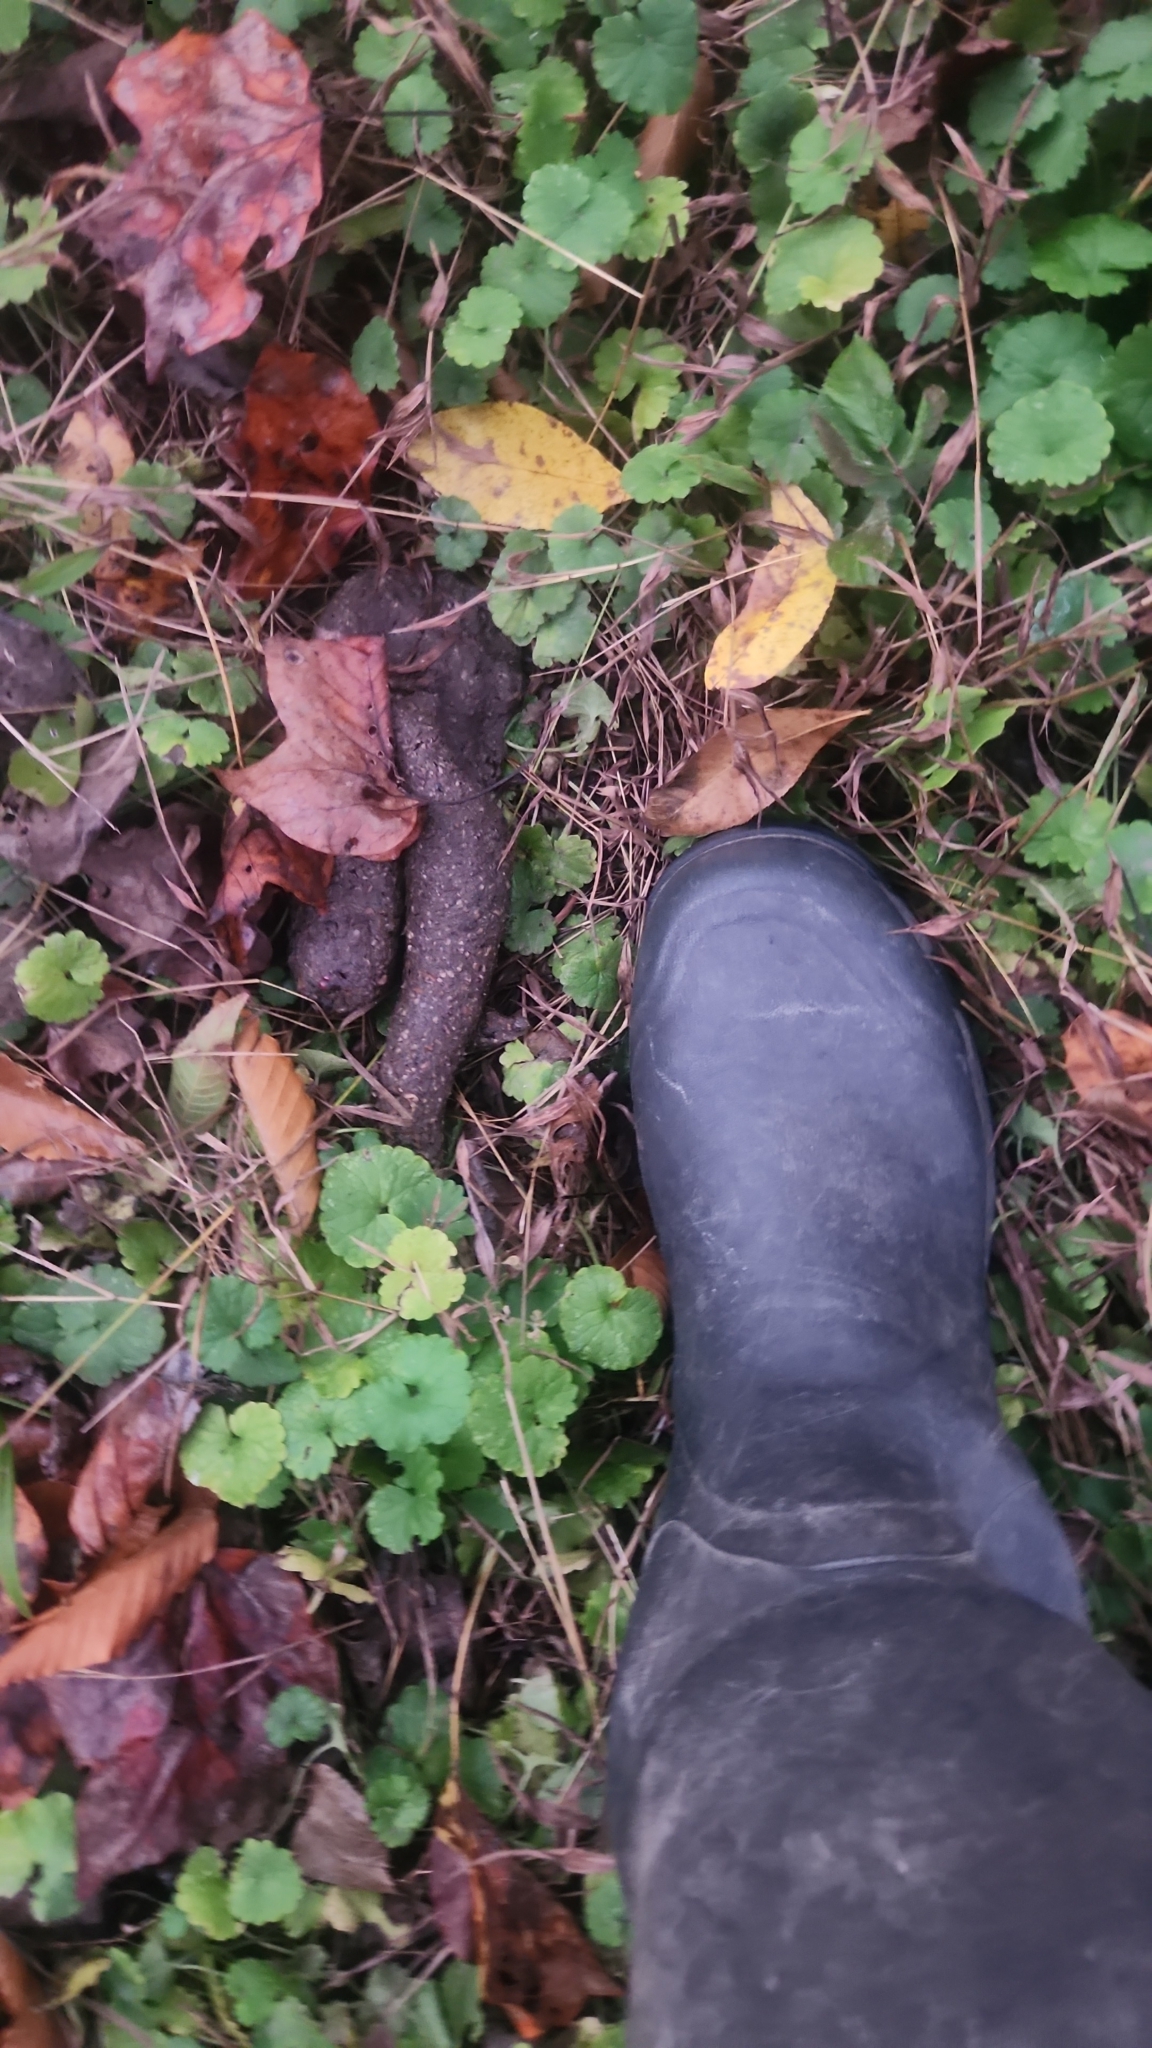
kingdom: Animalia
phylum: Chordata
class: Mammalia
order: Carnivora
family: Ursidae
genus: Ursus
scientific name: Ursus americanus
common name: American black bear
